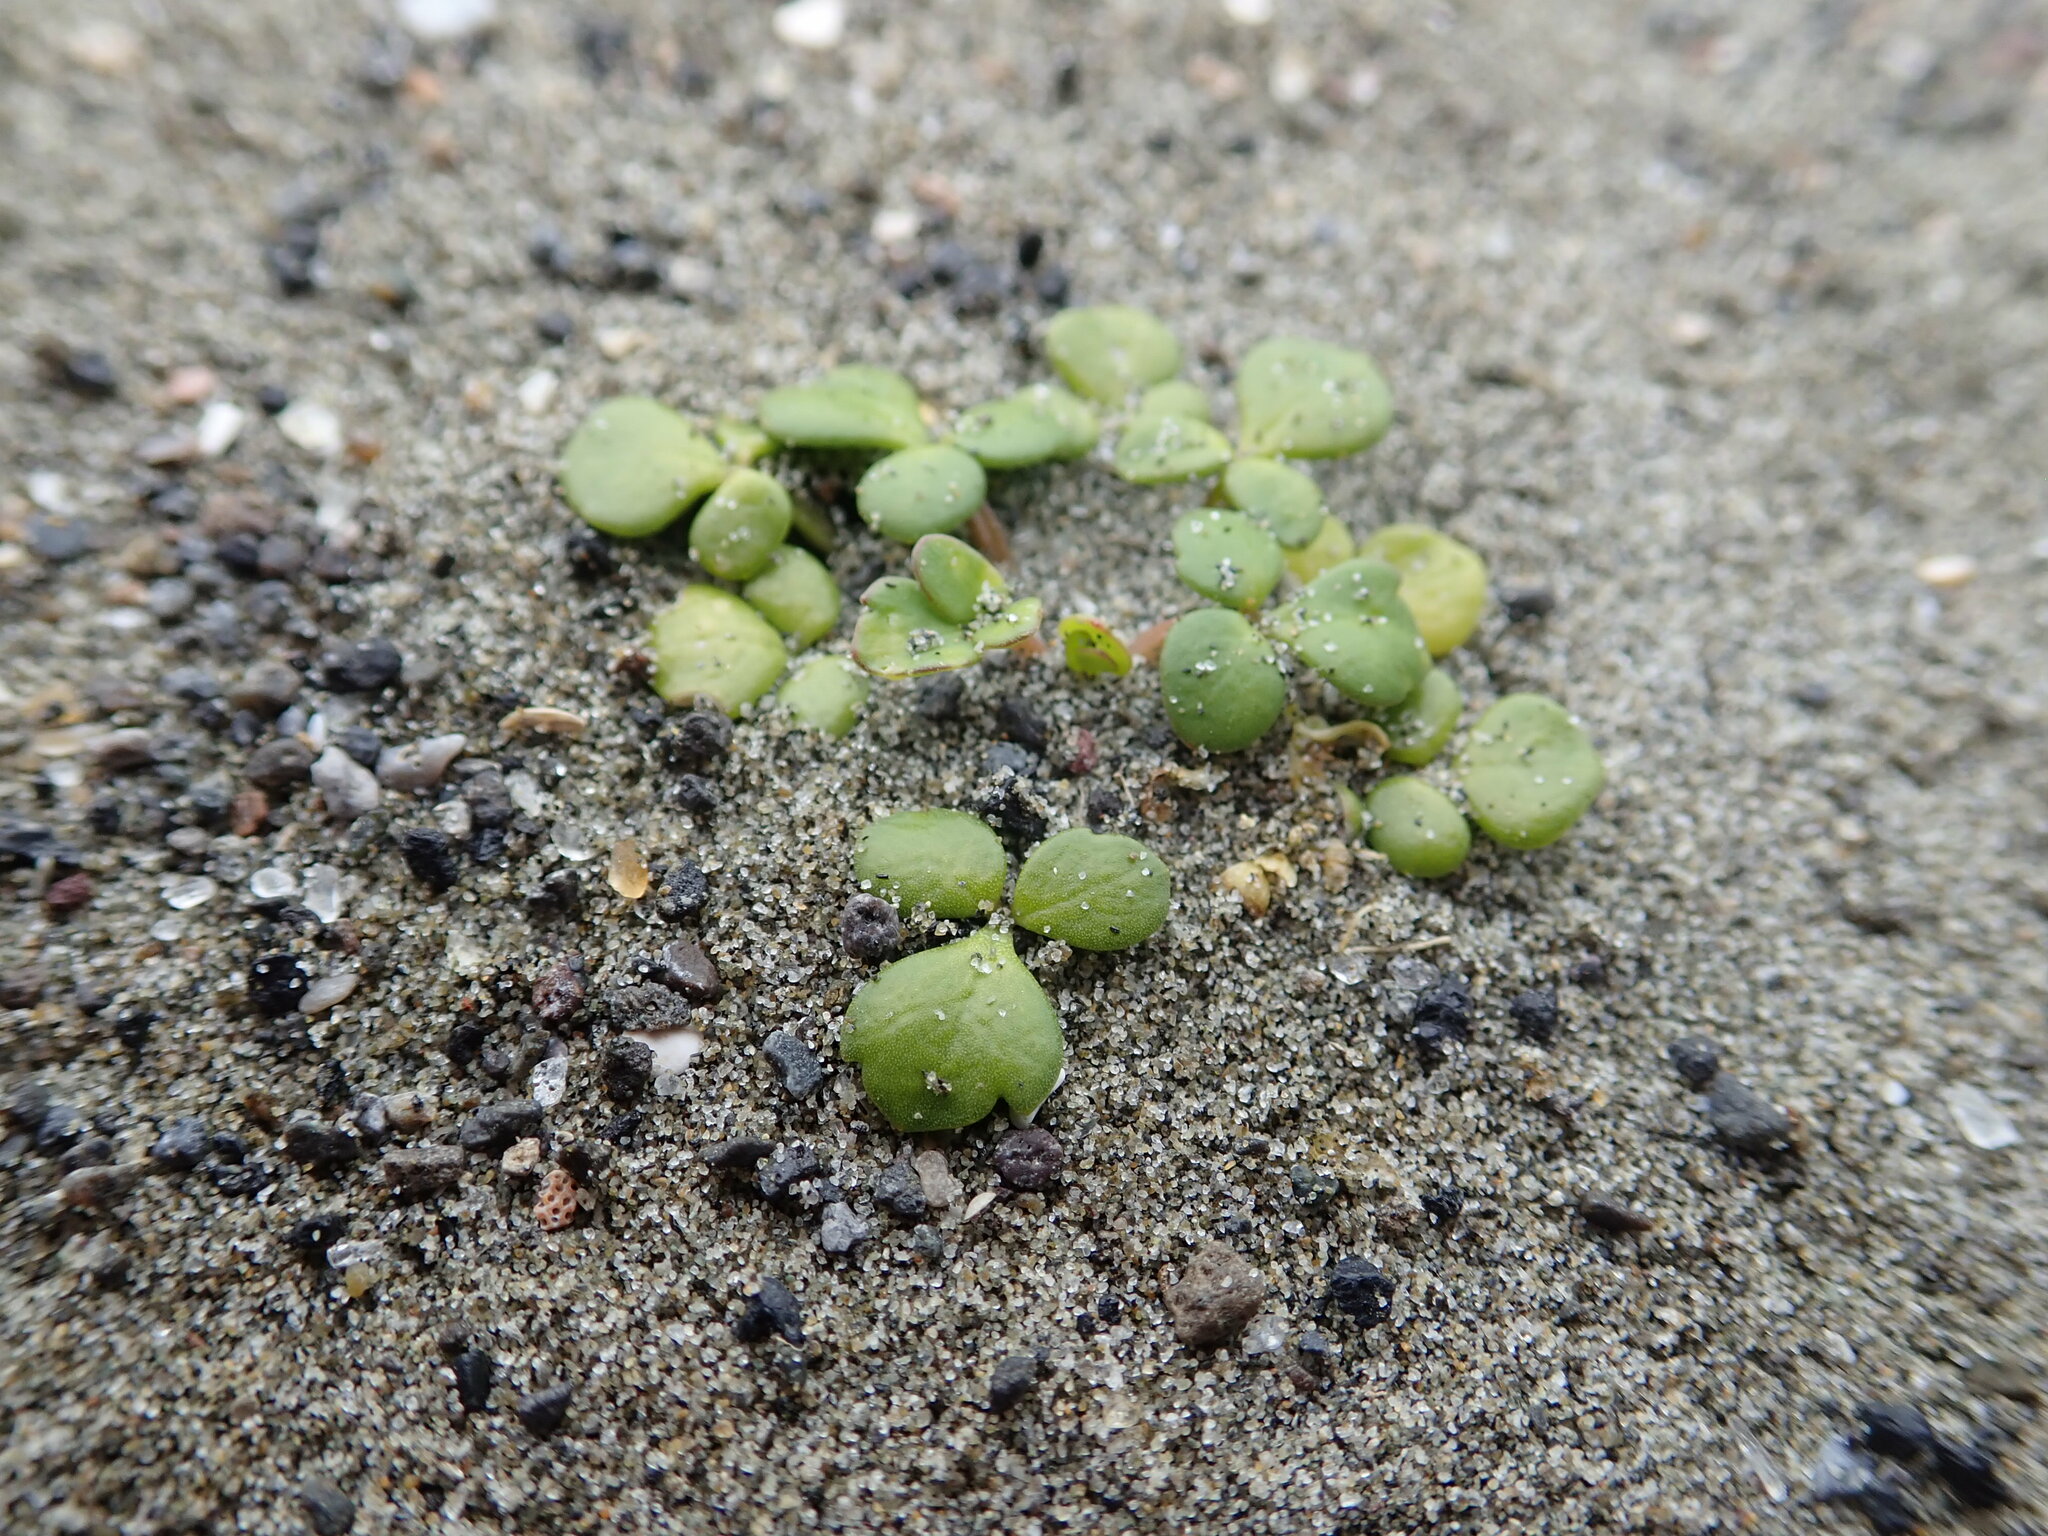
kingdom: Plantae
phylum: Tracheophyta
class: Magnoliopsida
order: Ranunculales
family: Ranunculaceae
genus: Ranunculus
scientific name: Ranunculus acaulis
